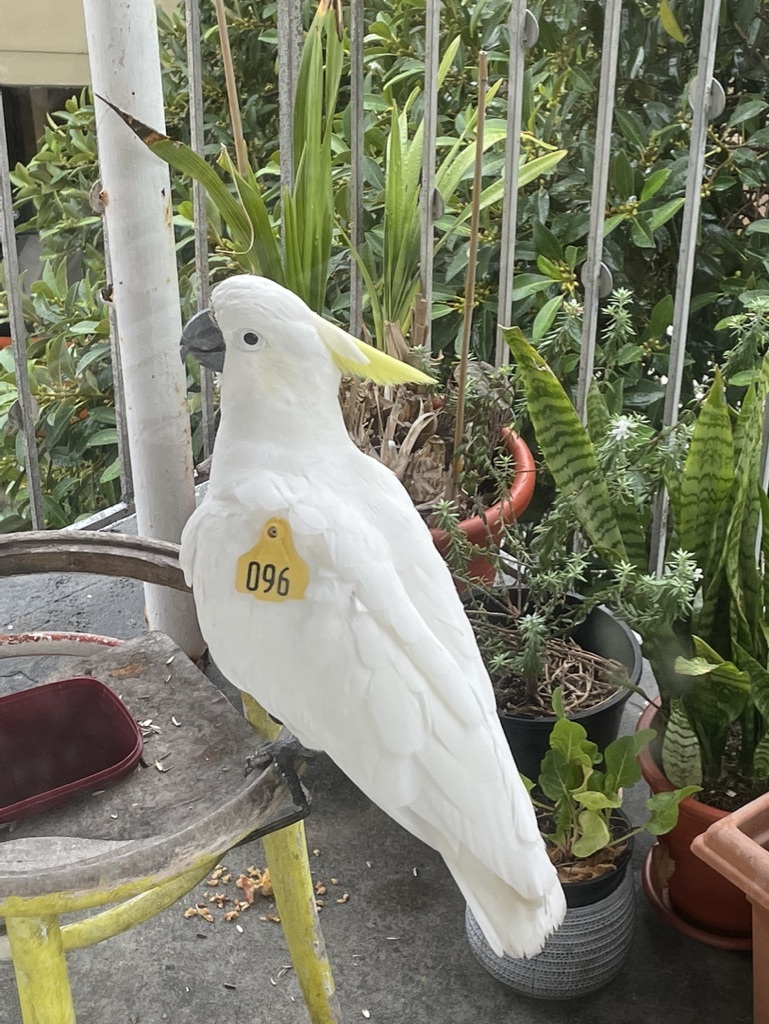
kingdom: Animalia
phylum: Chordata
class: Aves
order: Psittaciformes
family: Psittacidae
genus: Cacatua
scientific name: Cacatua galerita
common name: Sulphur-crested cockatoo
